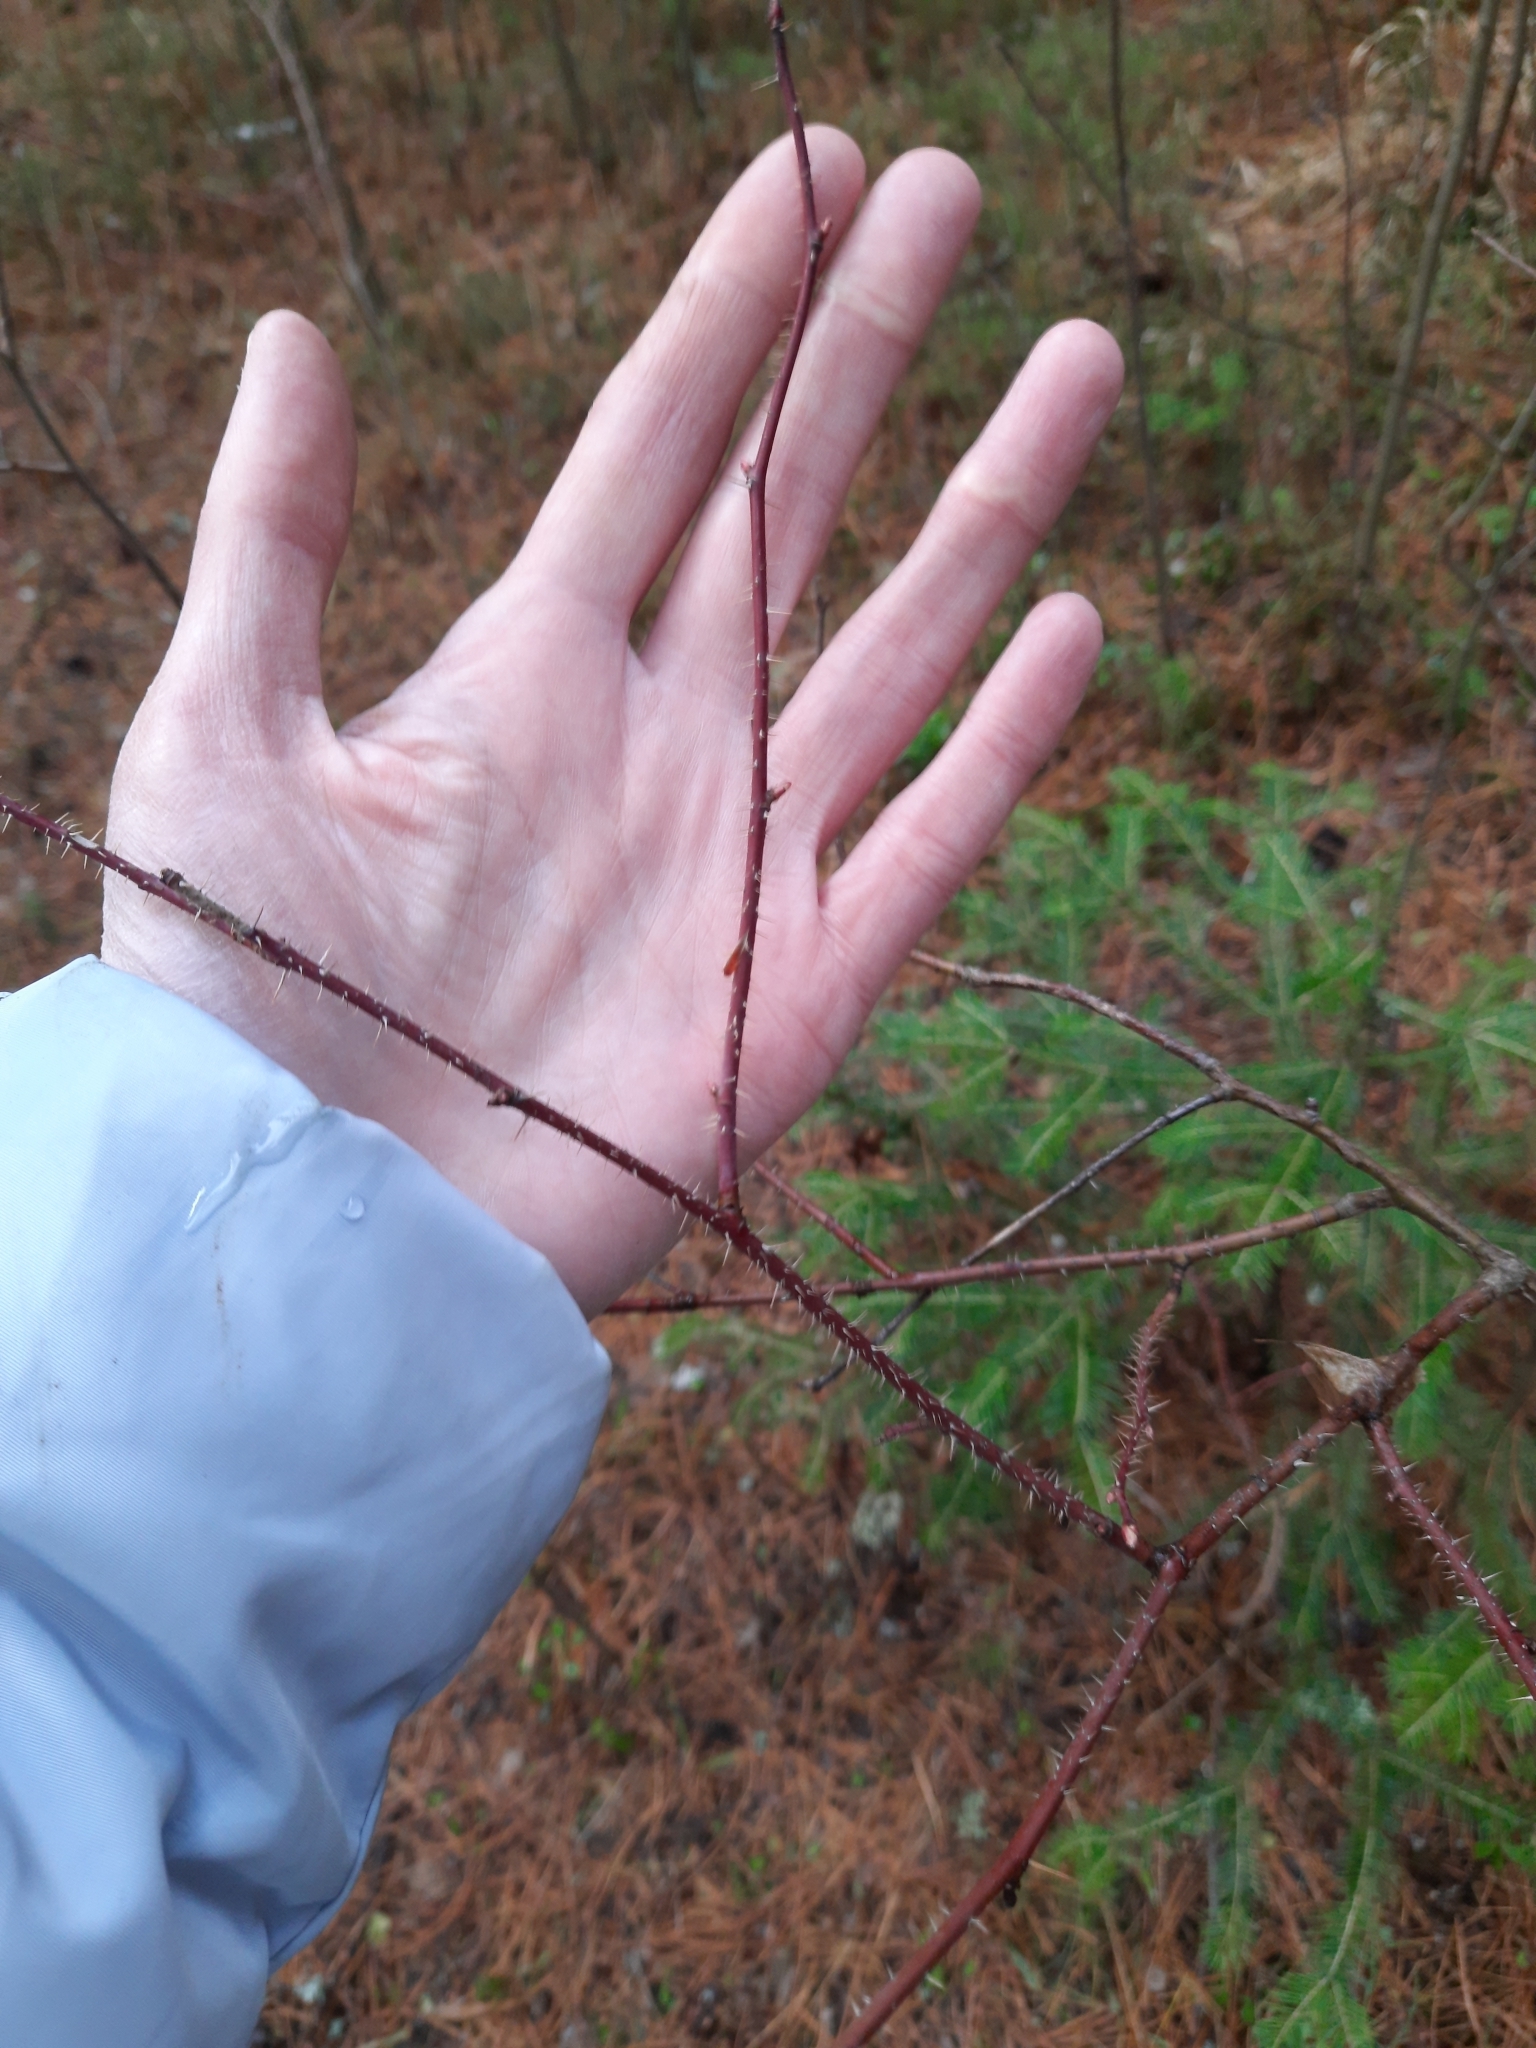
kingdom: Plantae
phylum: Tracheophyta
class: Magnoliopsida
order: Rosales
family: Rosaceae
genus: Rosa
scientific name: Rosa acicularis
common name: Prickly rose
